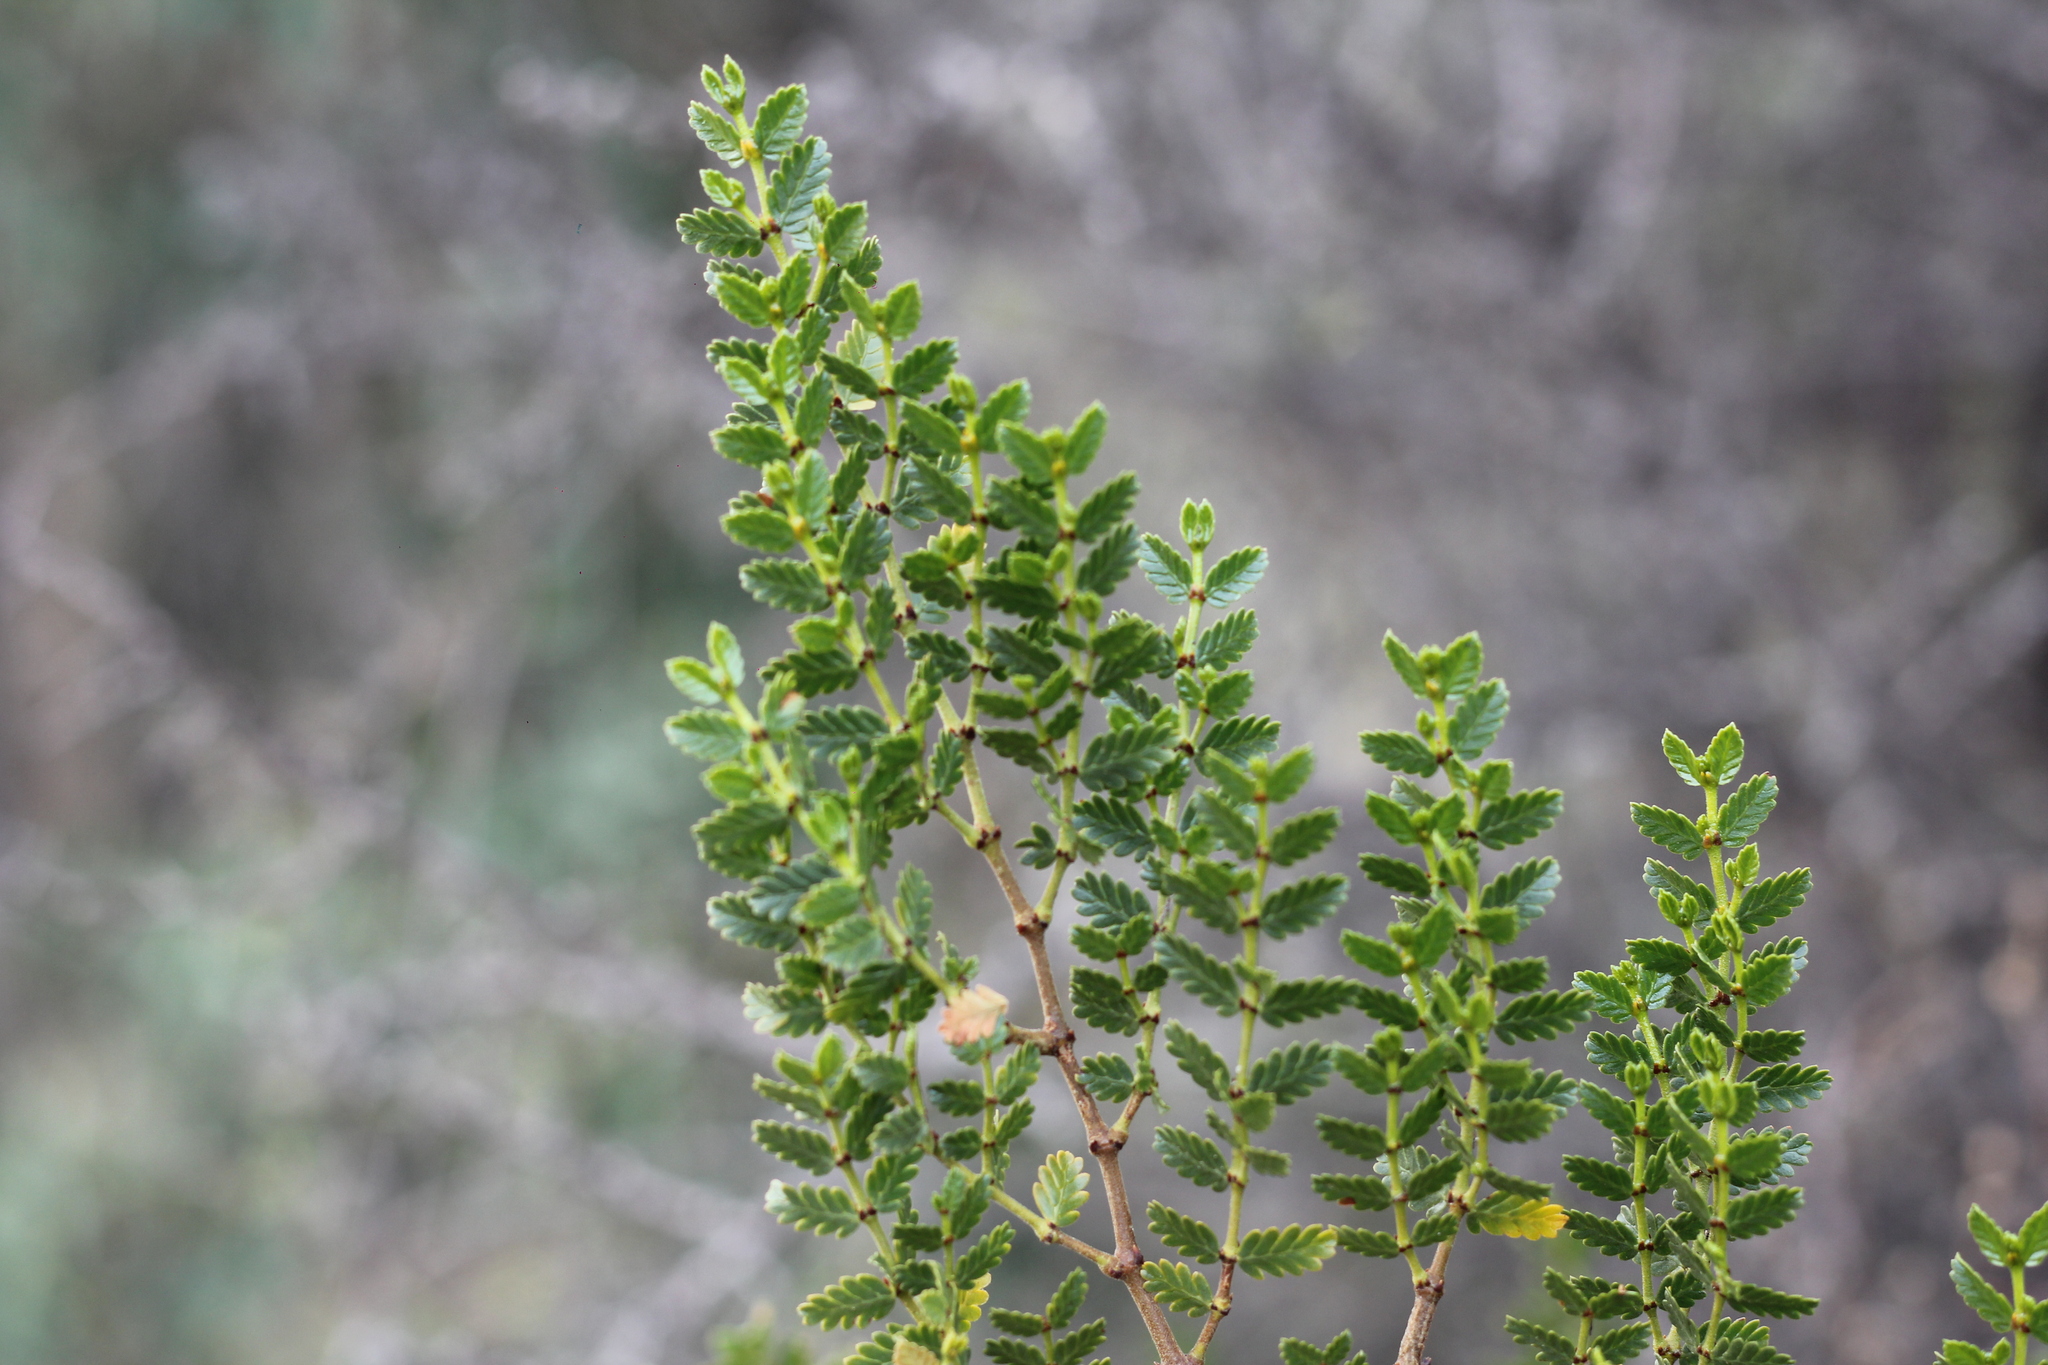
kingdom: Plantae
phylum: Tracheophyta
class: Magnoliopsida
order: Zygophyllales
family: Zygophyllaceae
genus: Larrea
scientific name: Larrea nitida
